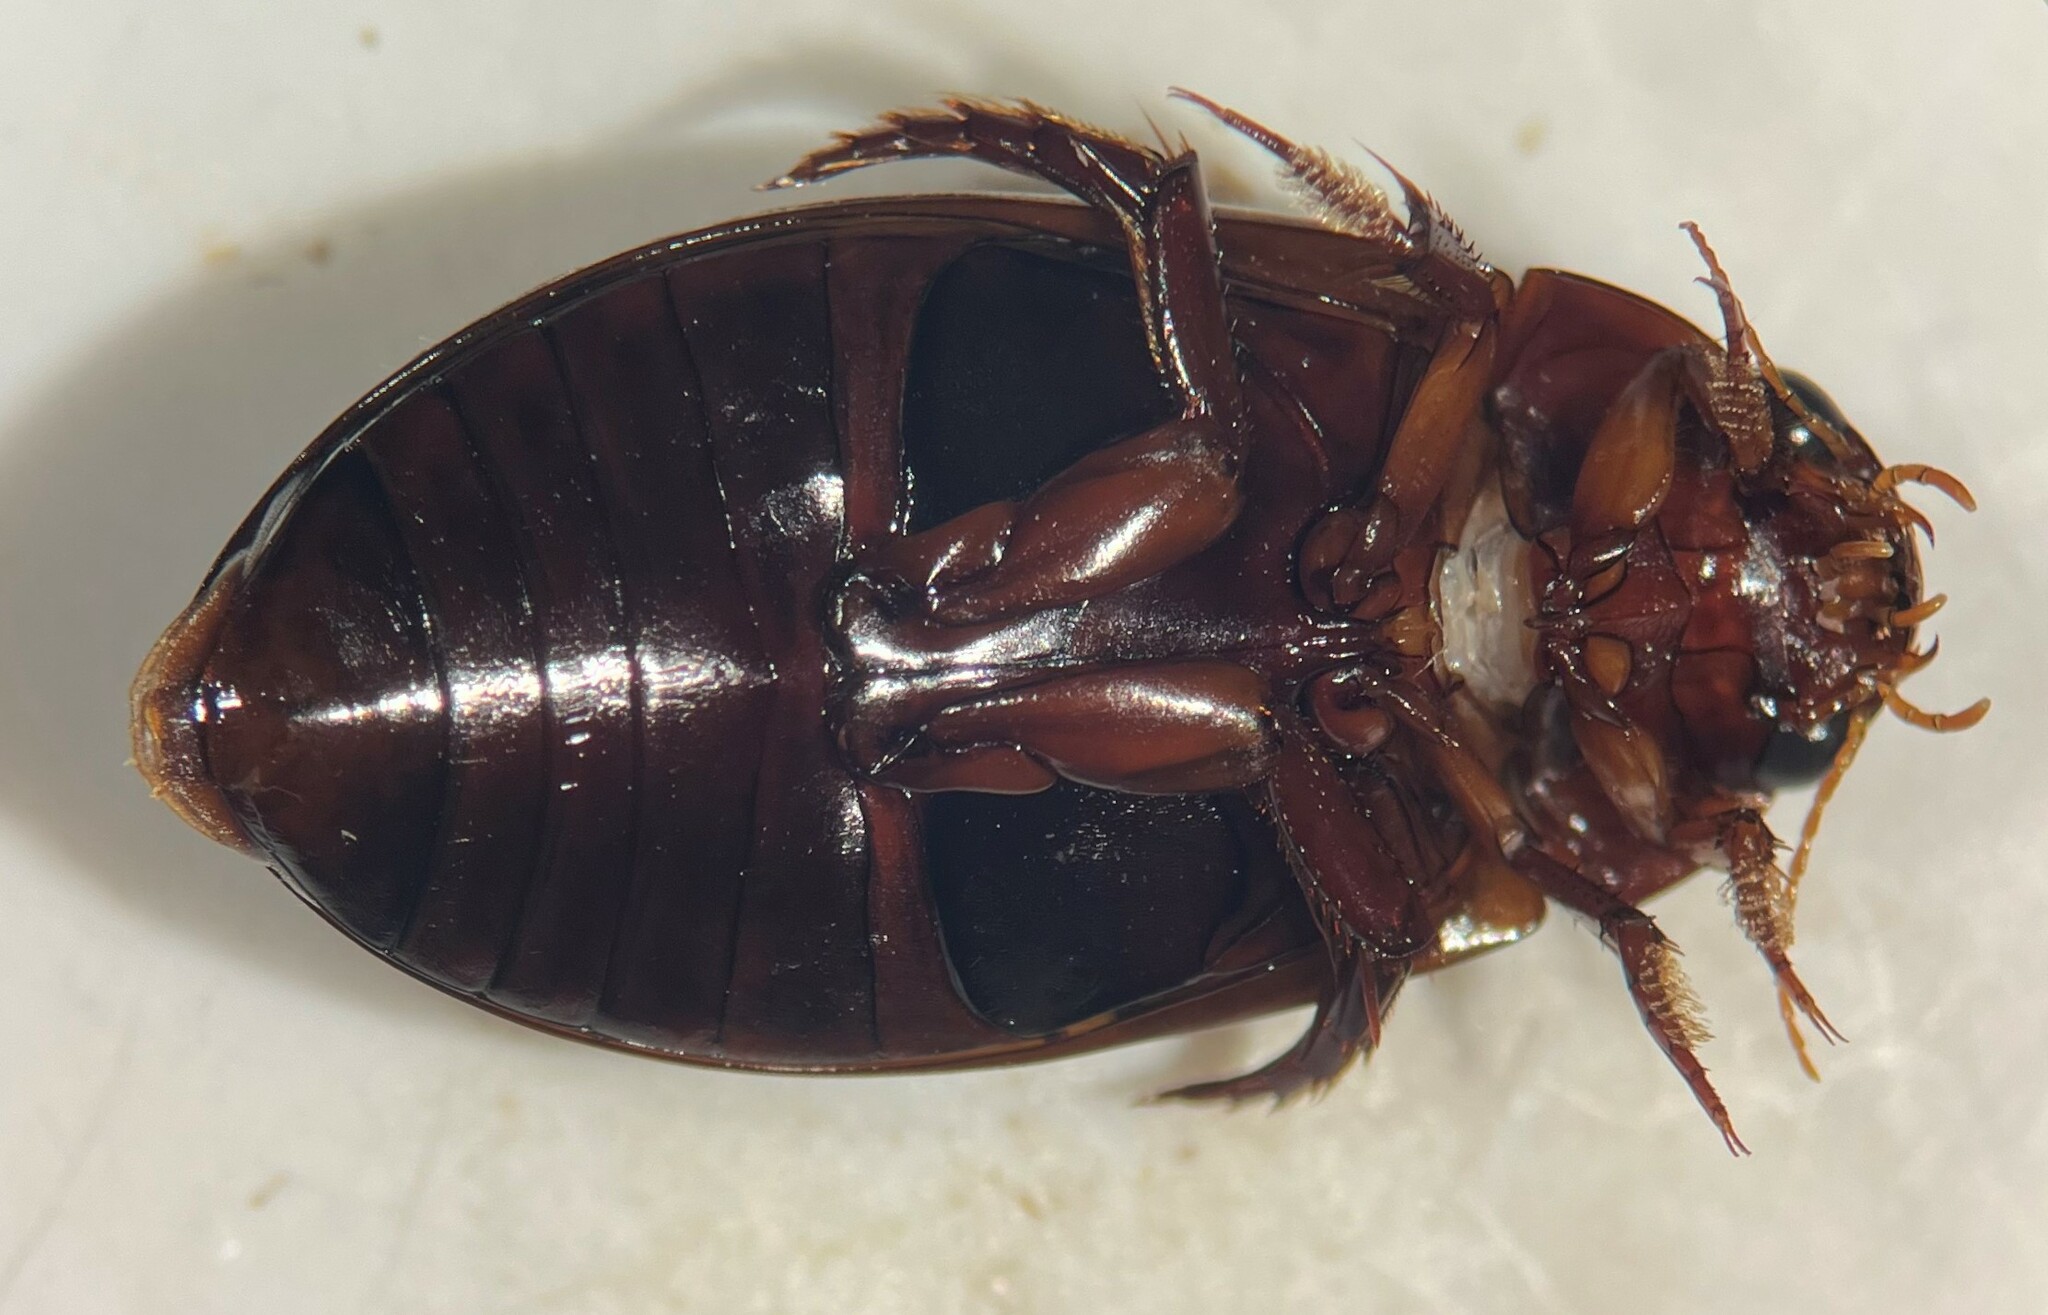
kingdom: Animalia
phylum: Arthropoda
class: Insecta
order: Coleoptera
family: Dytiscidae
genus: Ilybius
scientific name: Ilybius pleuriticus
